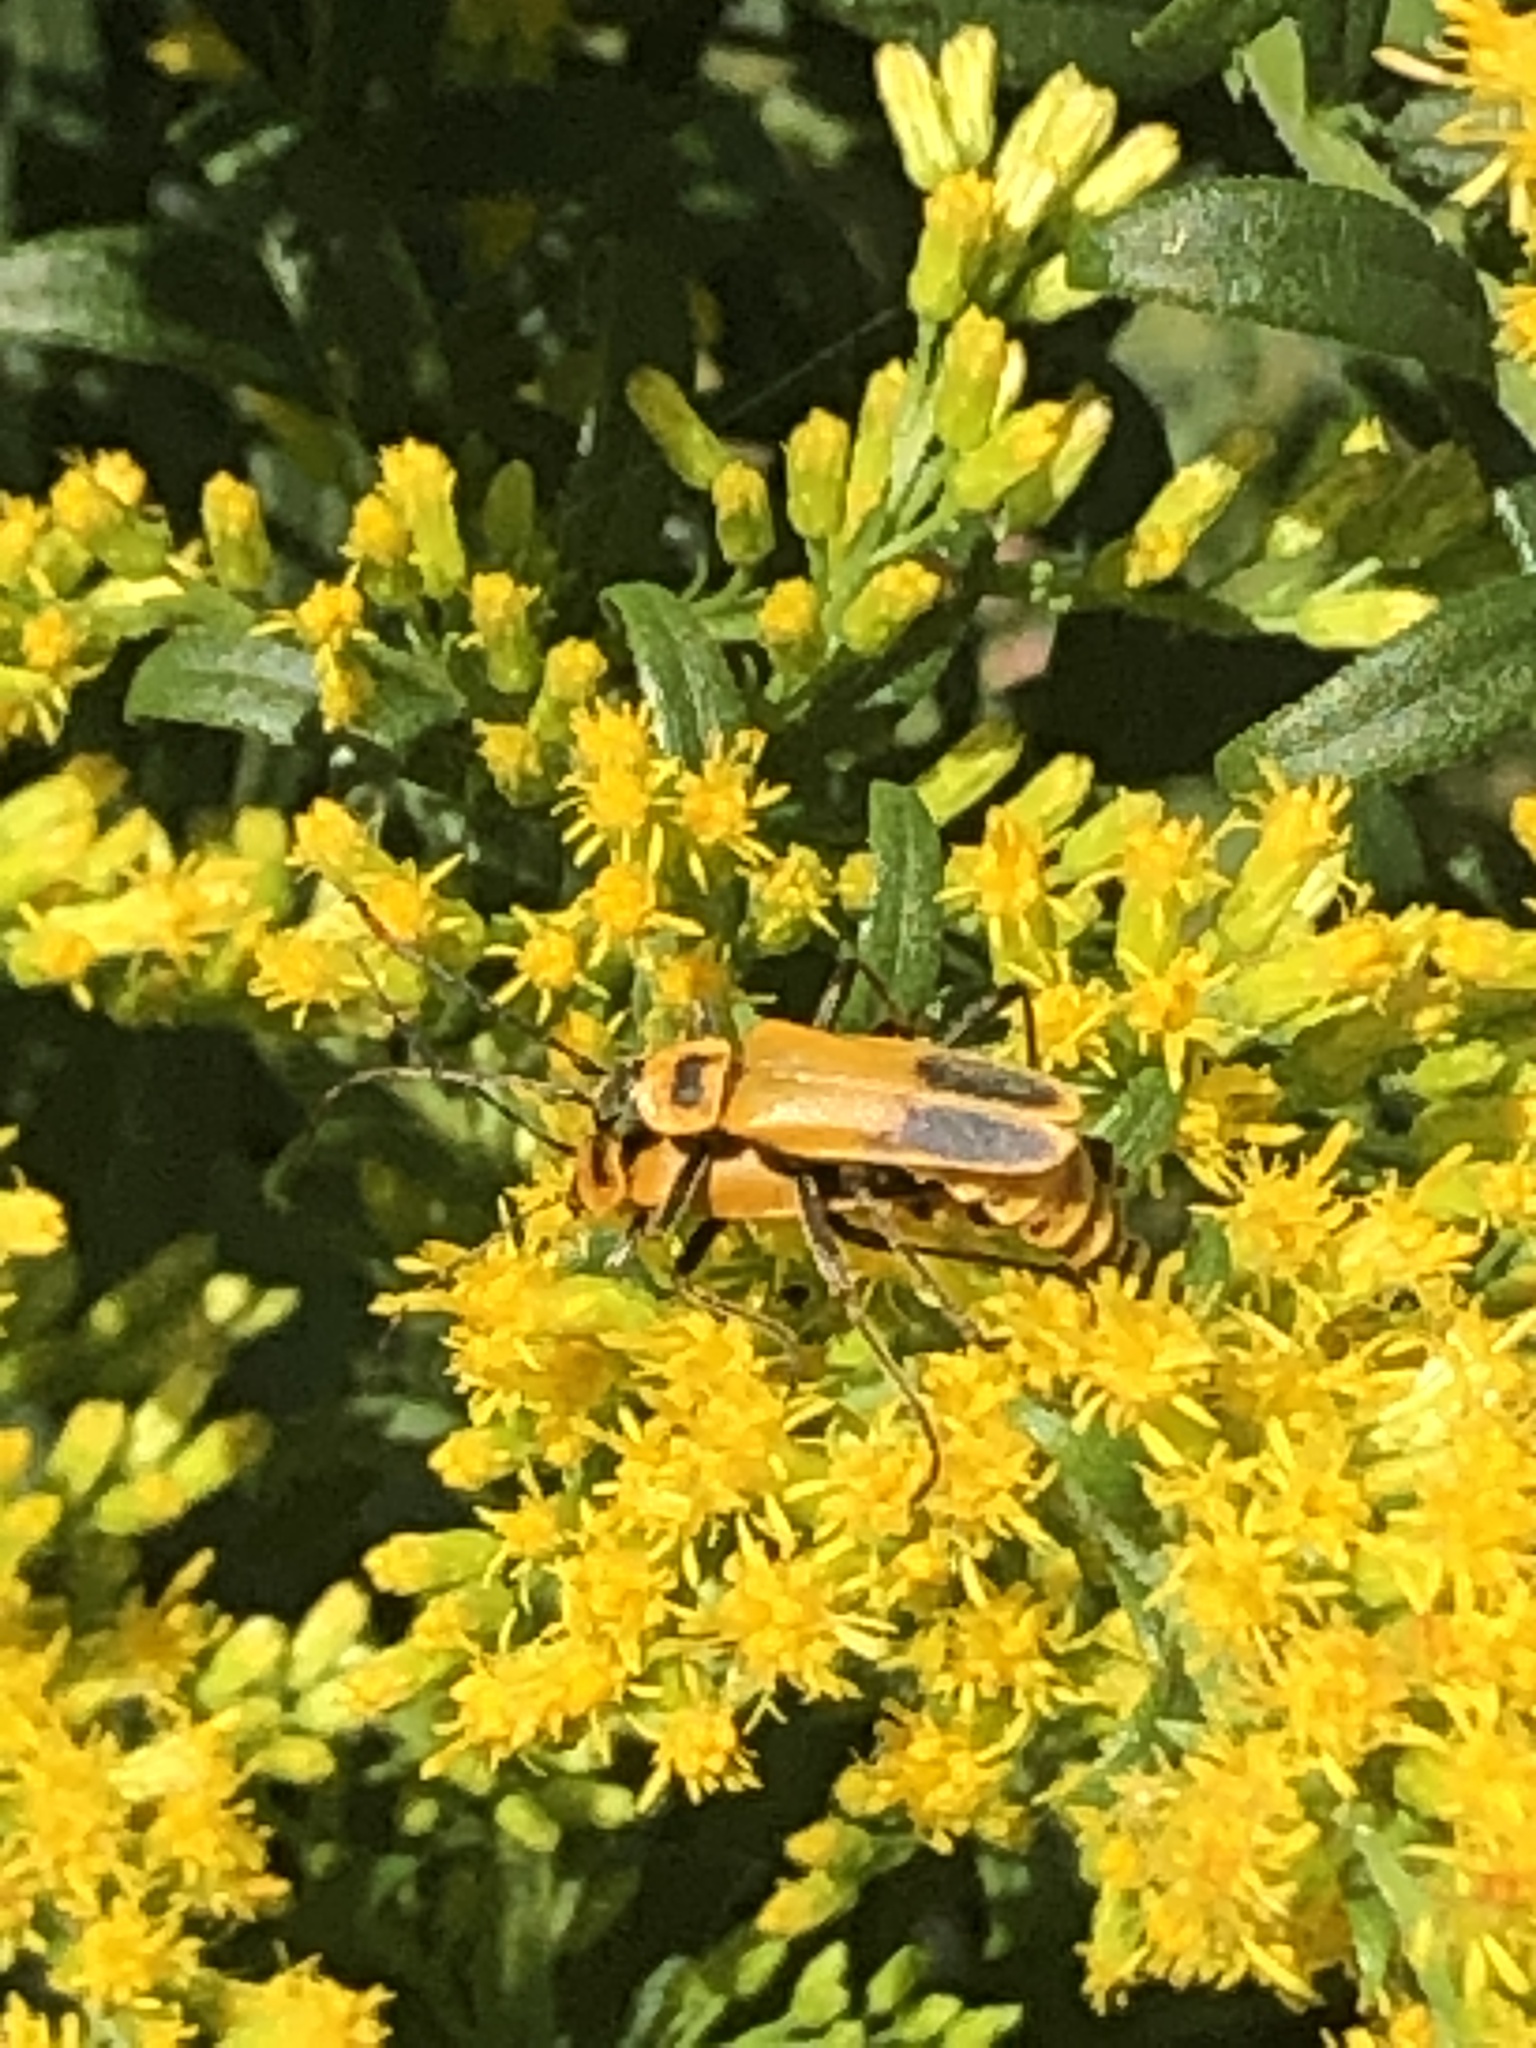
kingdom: Animalia
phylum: Arthropoda
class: Insecta
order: Coleoptera
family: Cantharidae
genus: Chauliognathus
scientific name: Chauliognathus pensylvanicus
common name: Goldenrod soldier beetle
